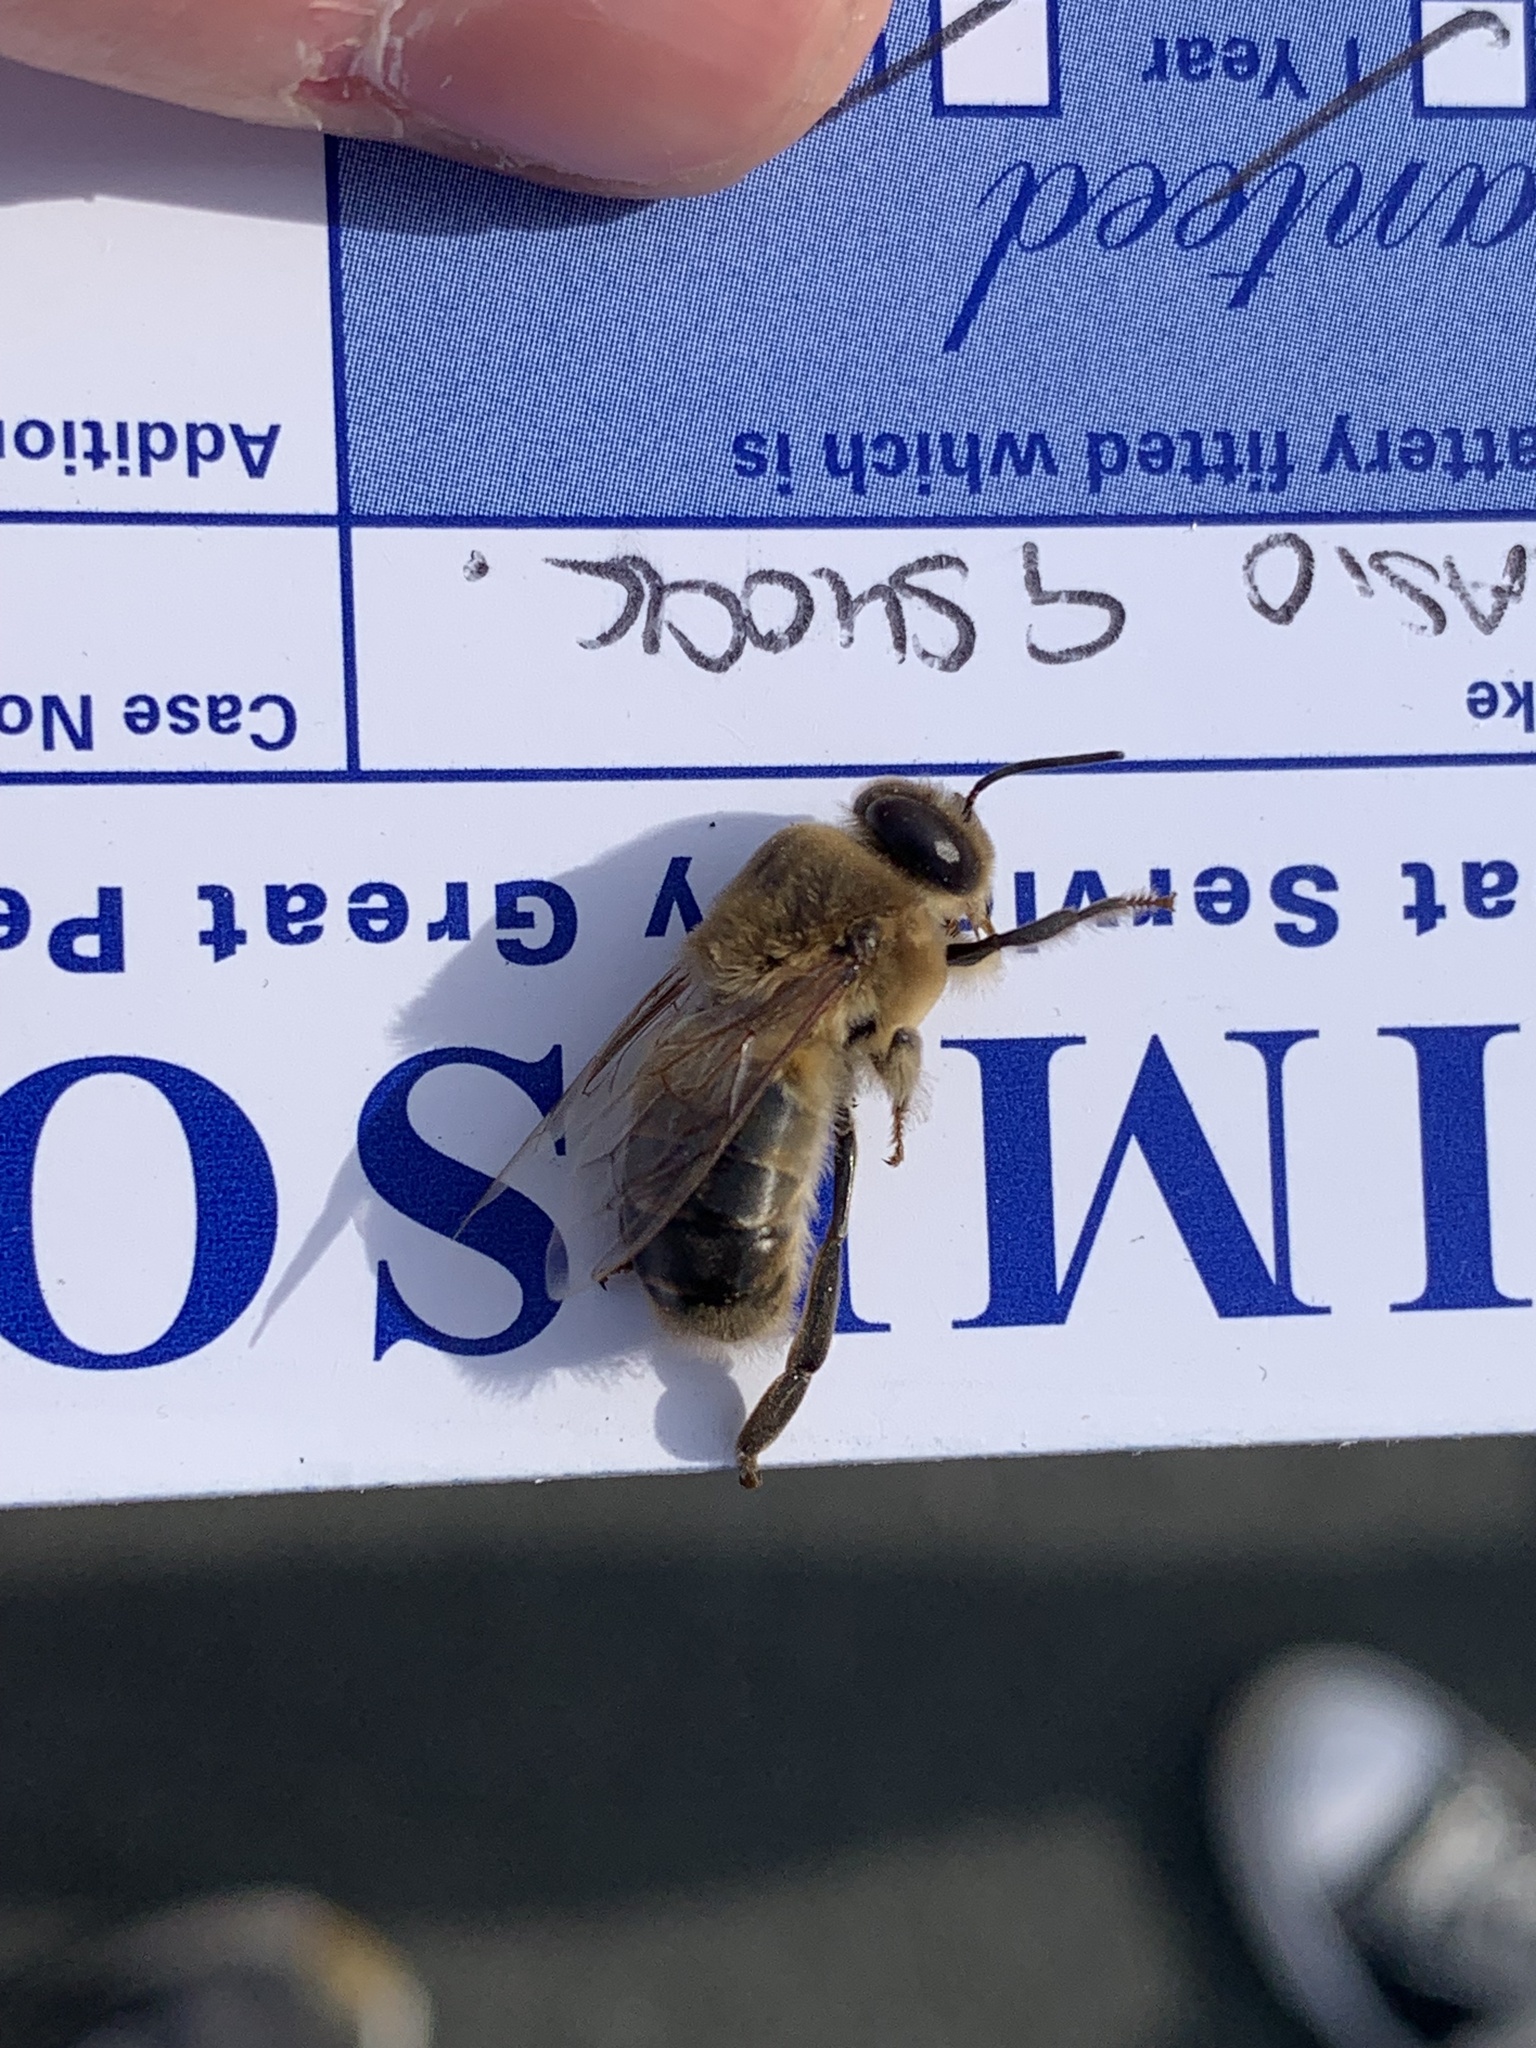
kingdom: Animalia
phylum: Arthropoda
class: Insecta
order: Hymenoptera
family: Apidae
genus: Apis
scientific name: Apis mellifera
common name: Honey bee
